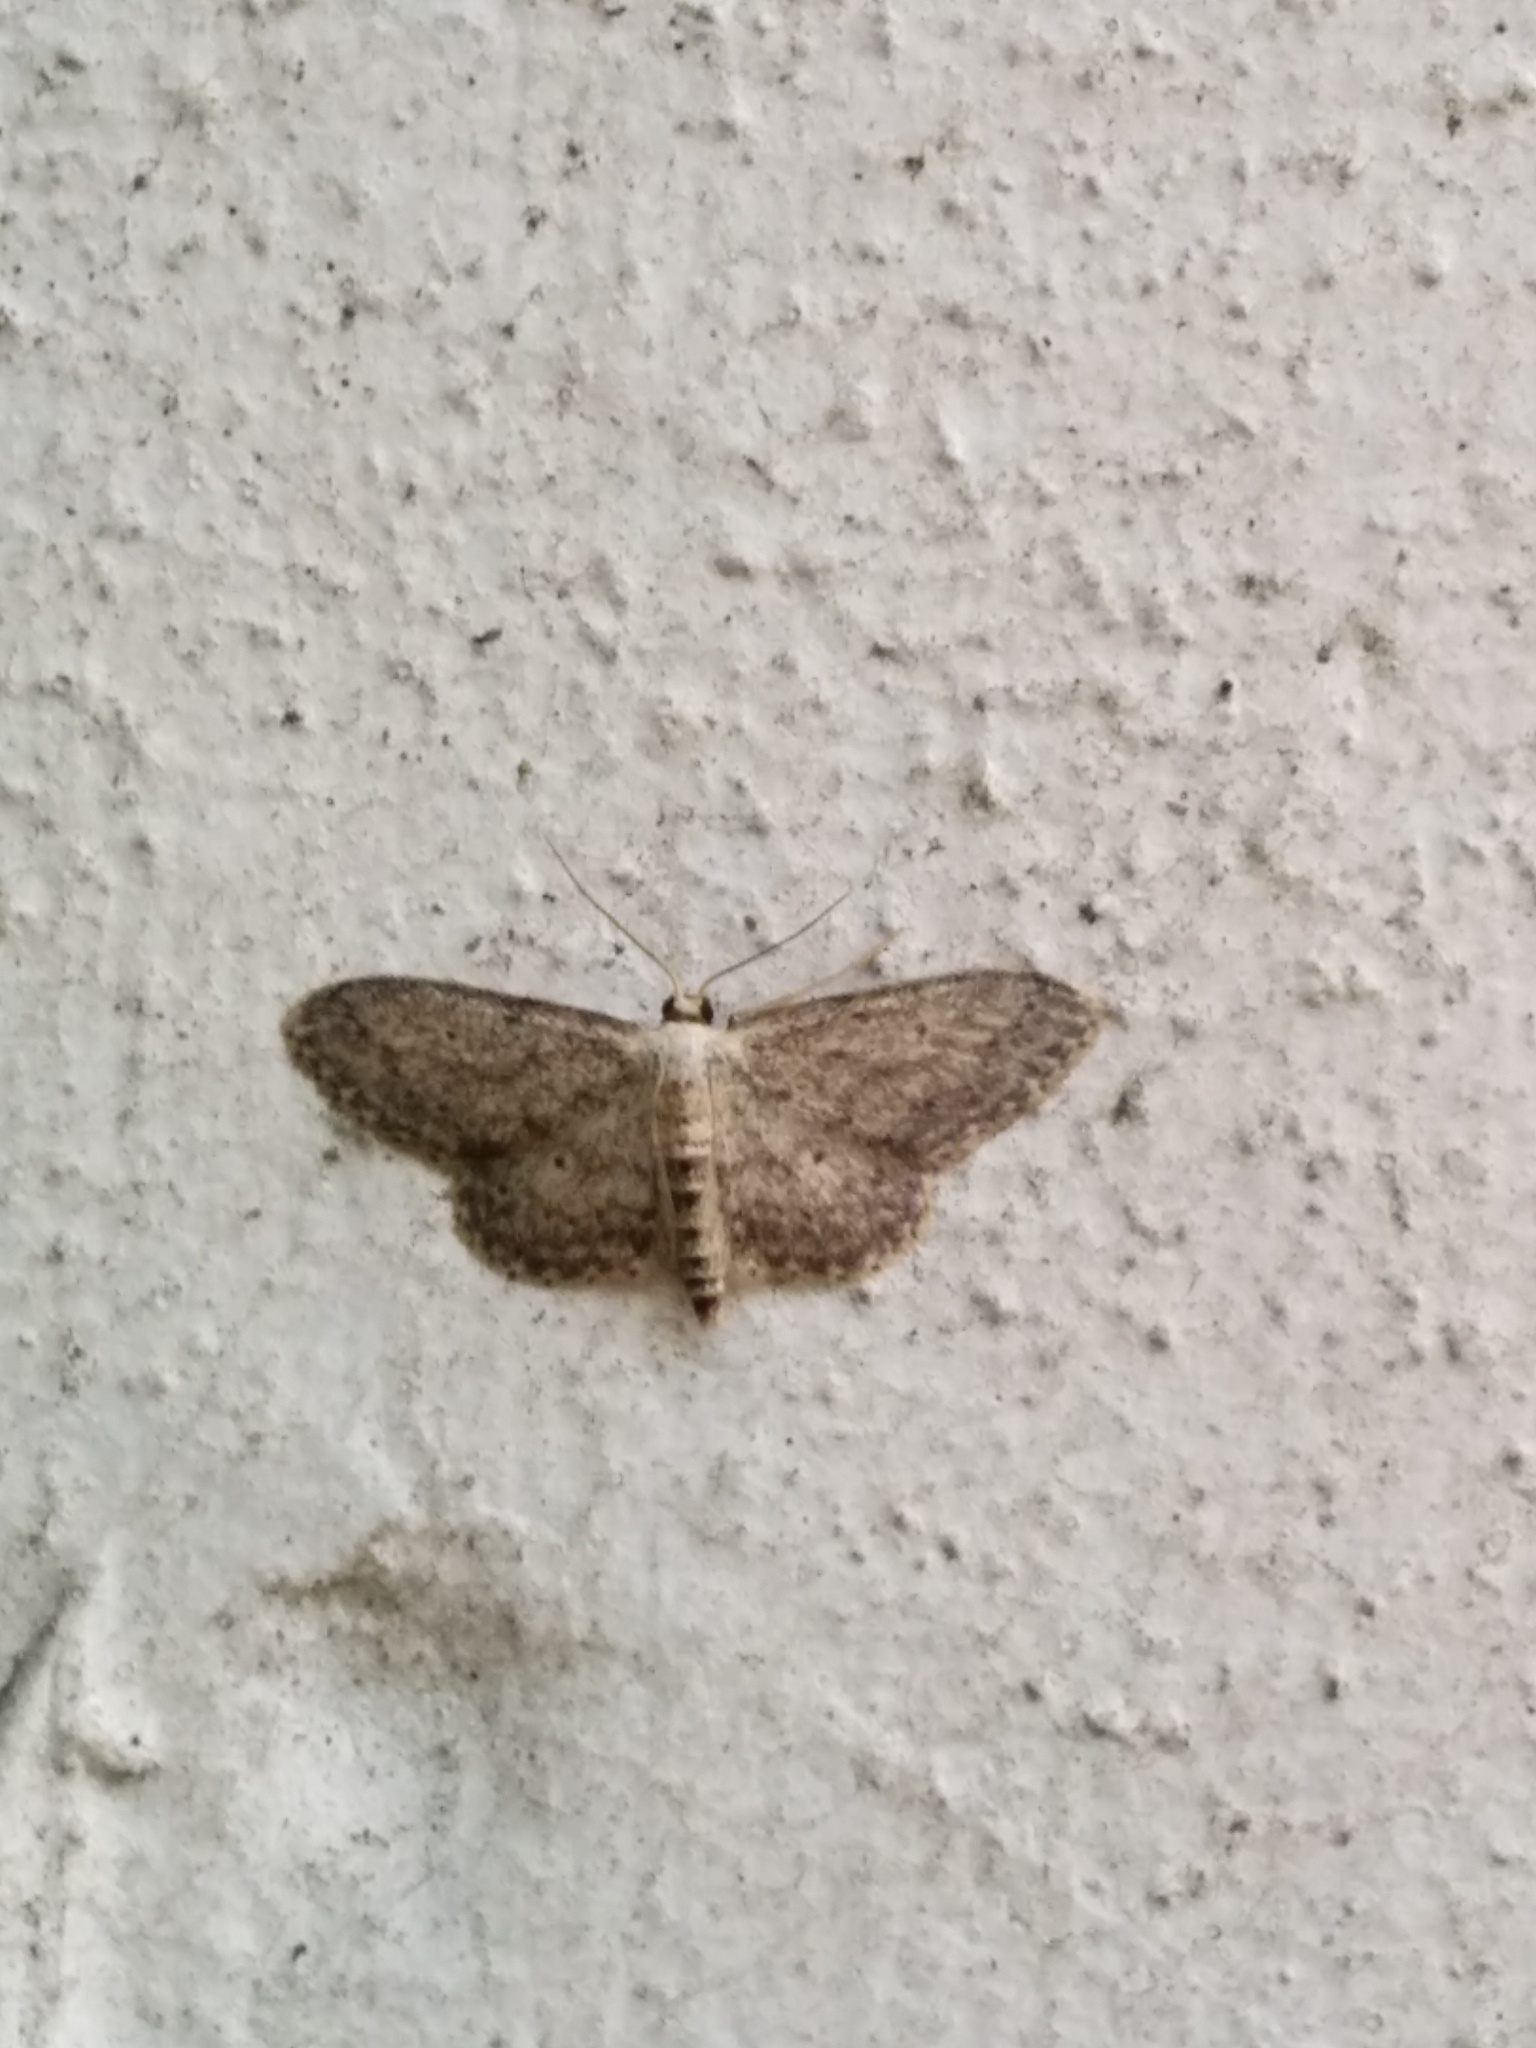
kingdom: Animalia
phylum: Arthropoda
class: Insecta
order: Lepidoptera
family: Geometridae
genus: Idaea
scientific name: Idaea seriata
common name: Small dusty wave
